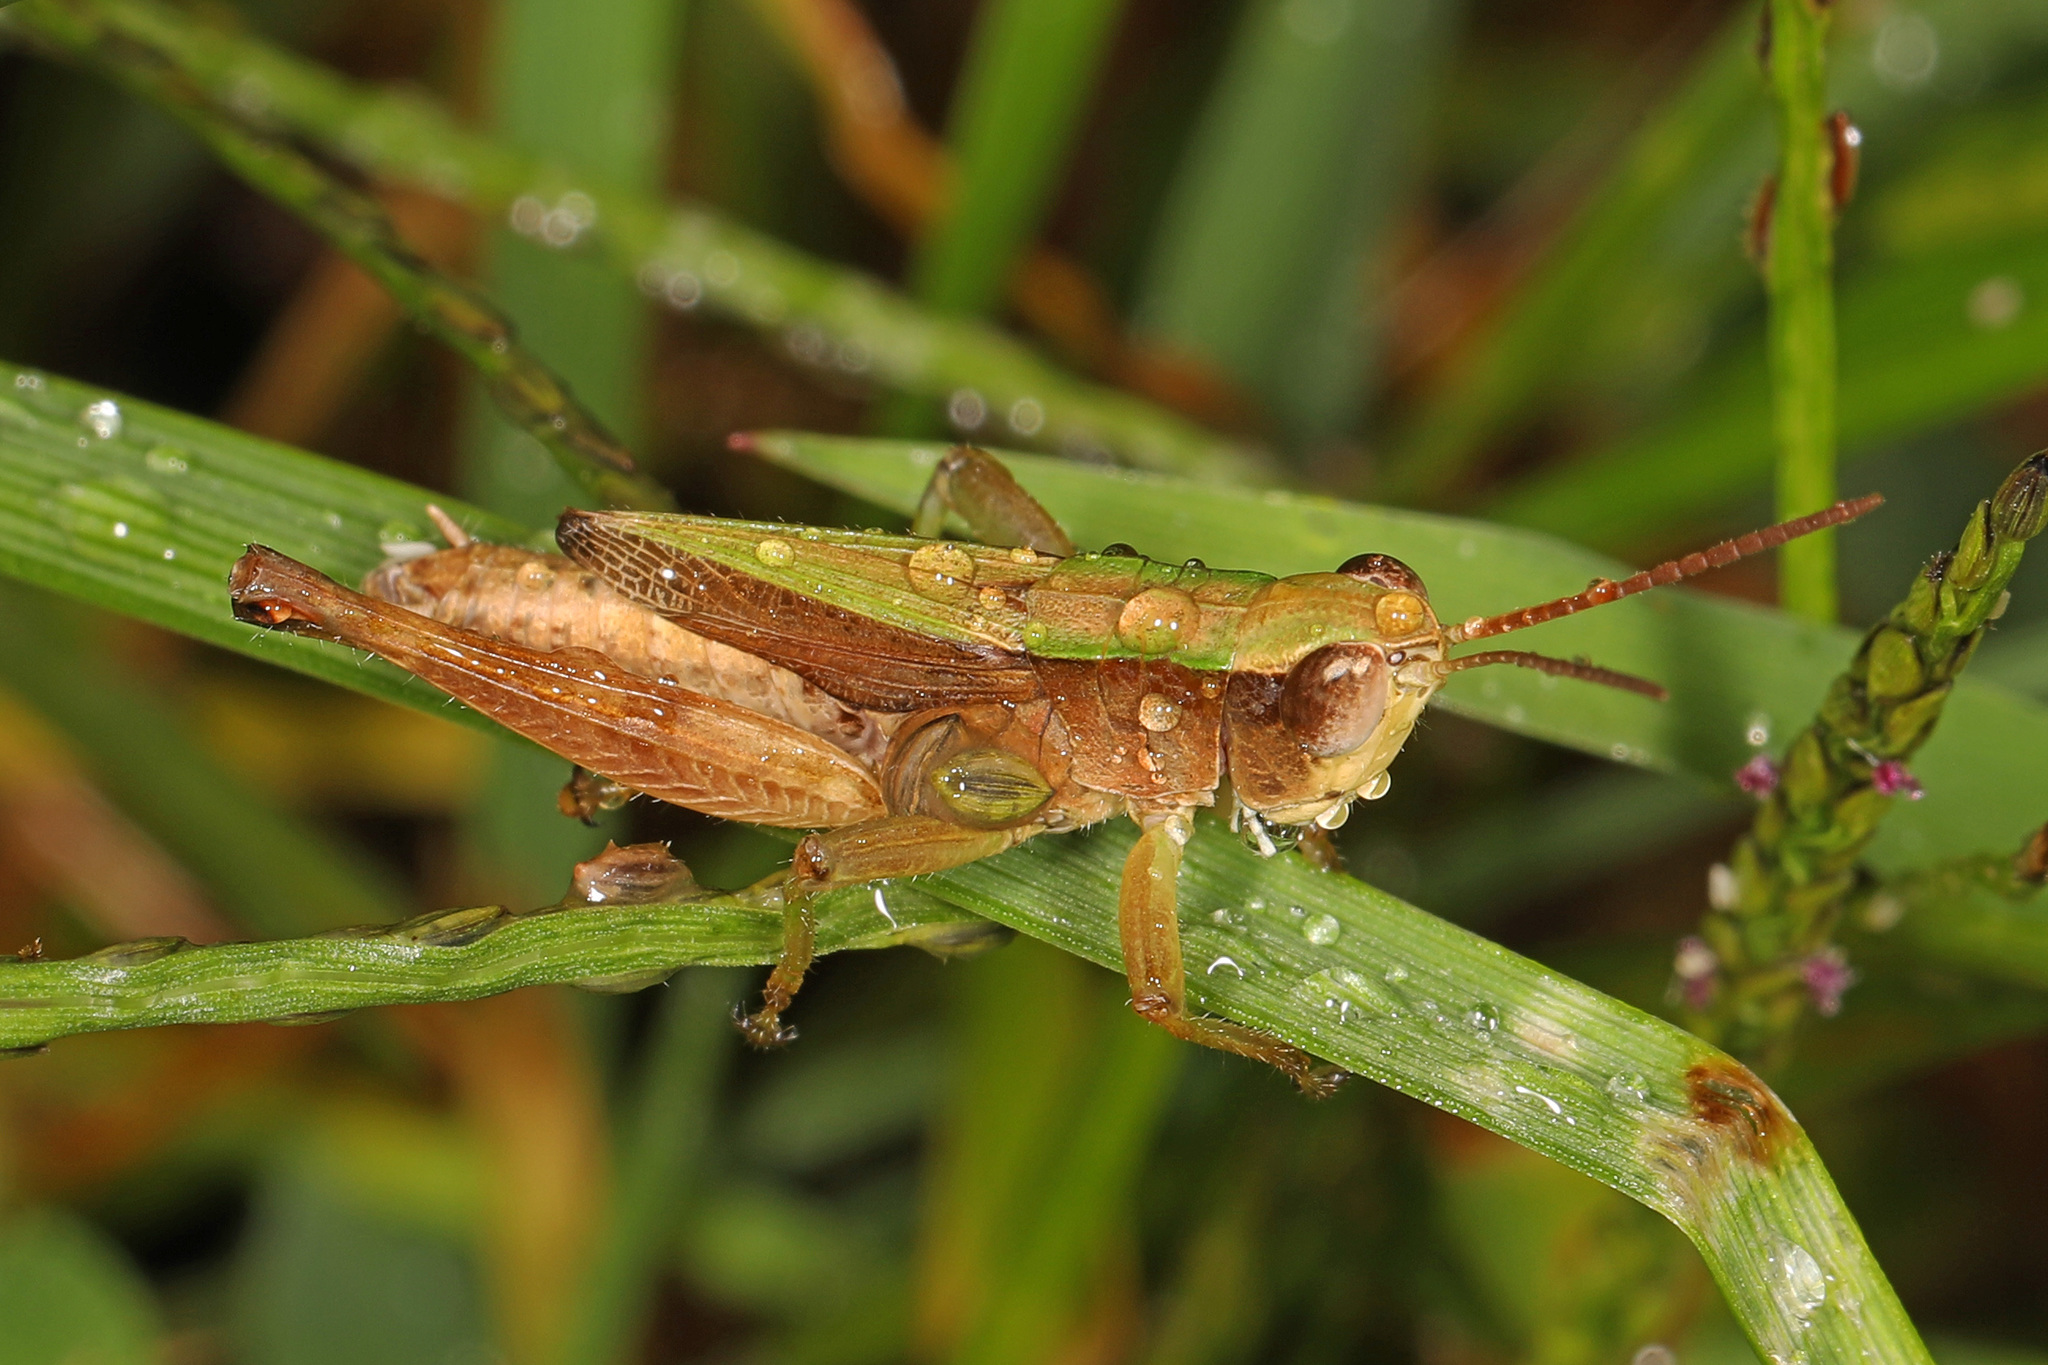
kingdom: Animalia
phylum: Arthropoda
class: Insecta
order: Orthoptera
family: Acrididae
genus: Dichromorpha
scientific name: Dichromorpha viridis
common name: Short-winged green grasshopper
